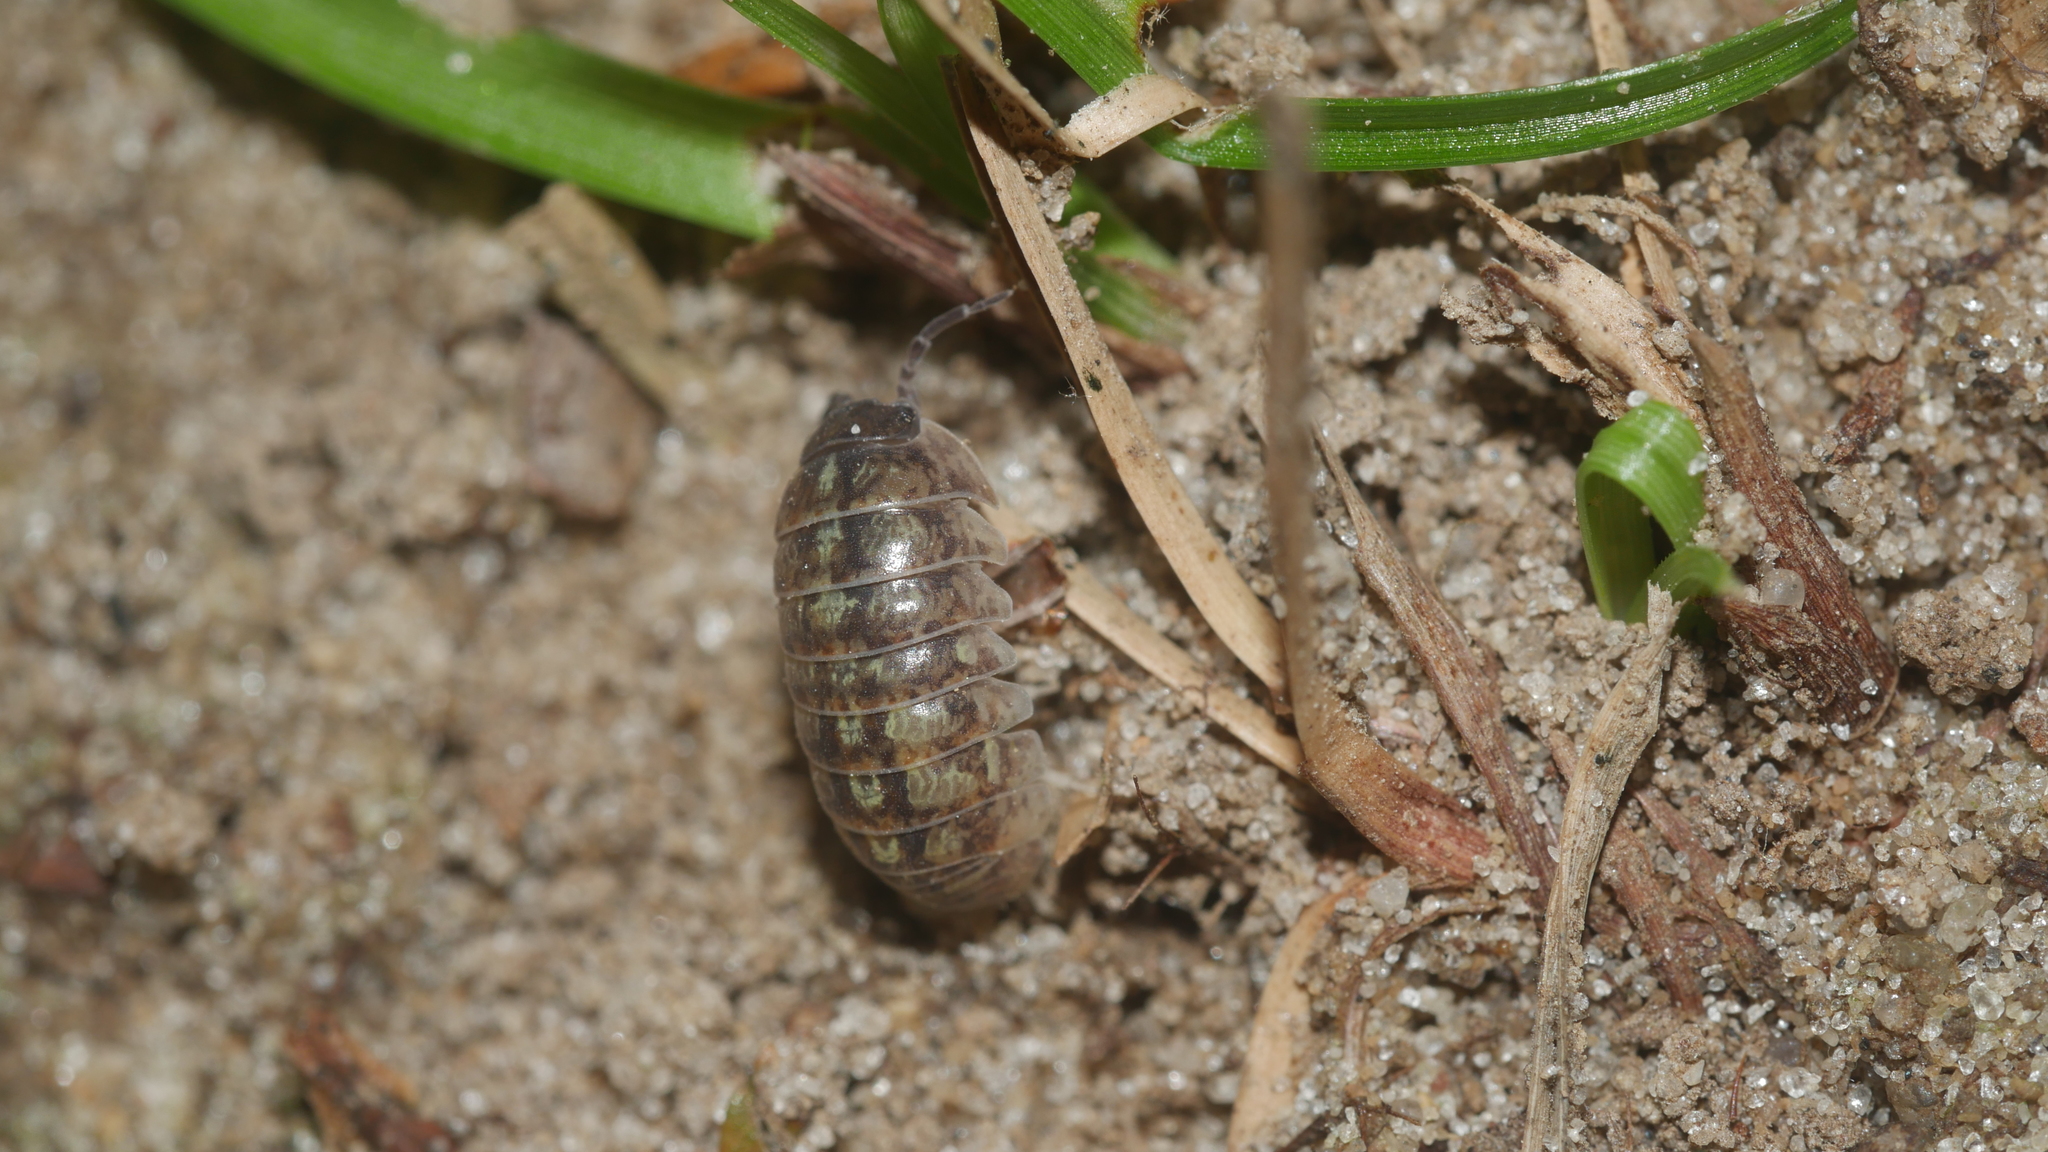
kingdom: Animalia
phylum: Arthropoda
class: Malacostraca
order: Isopoda
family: Armadillidiidae
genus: Armadillidium
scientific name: Armadillidium vulgare
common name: Common pill woodlouse
